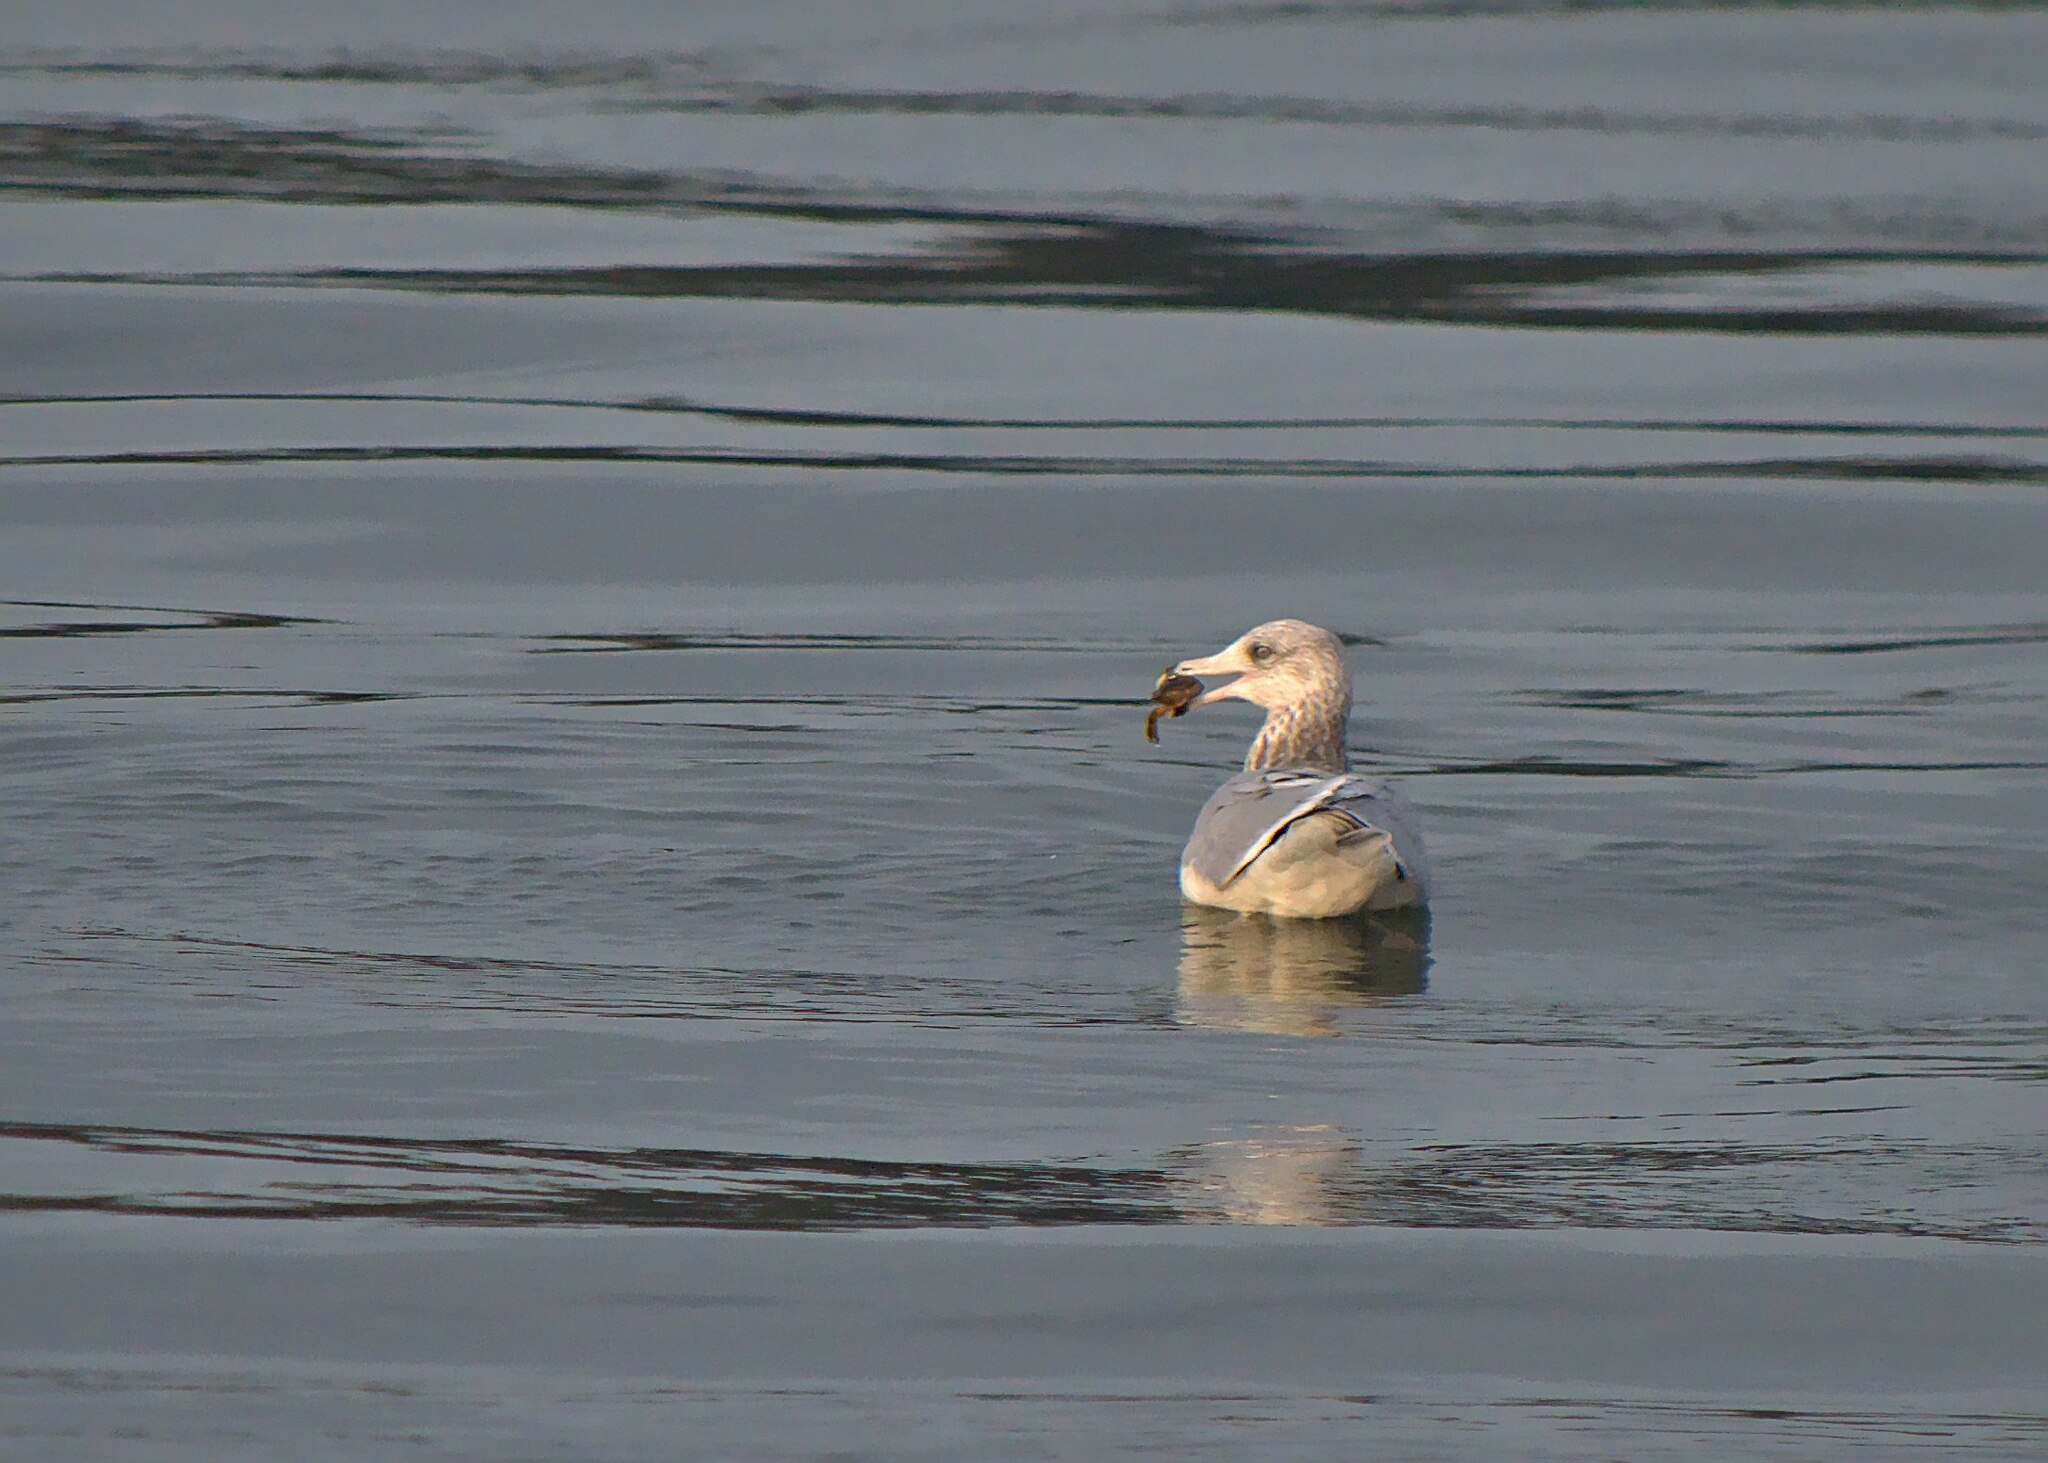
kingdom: Animalia
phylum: Chordata
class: Aves
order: Charadriiformes
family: Laridae
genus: Larus
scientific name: Larus argentatus
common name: Herring gull
